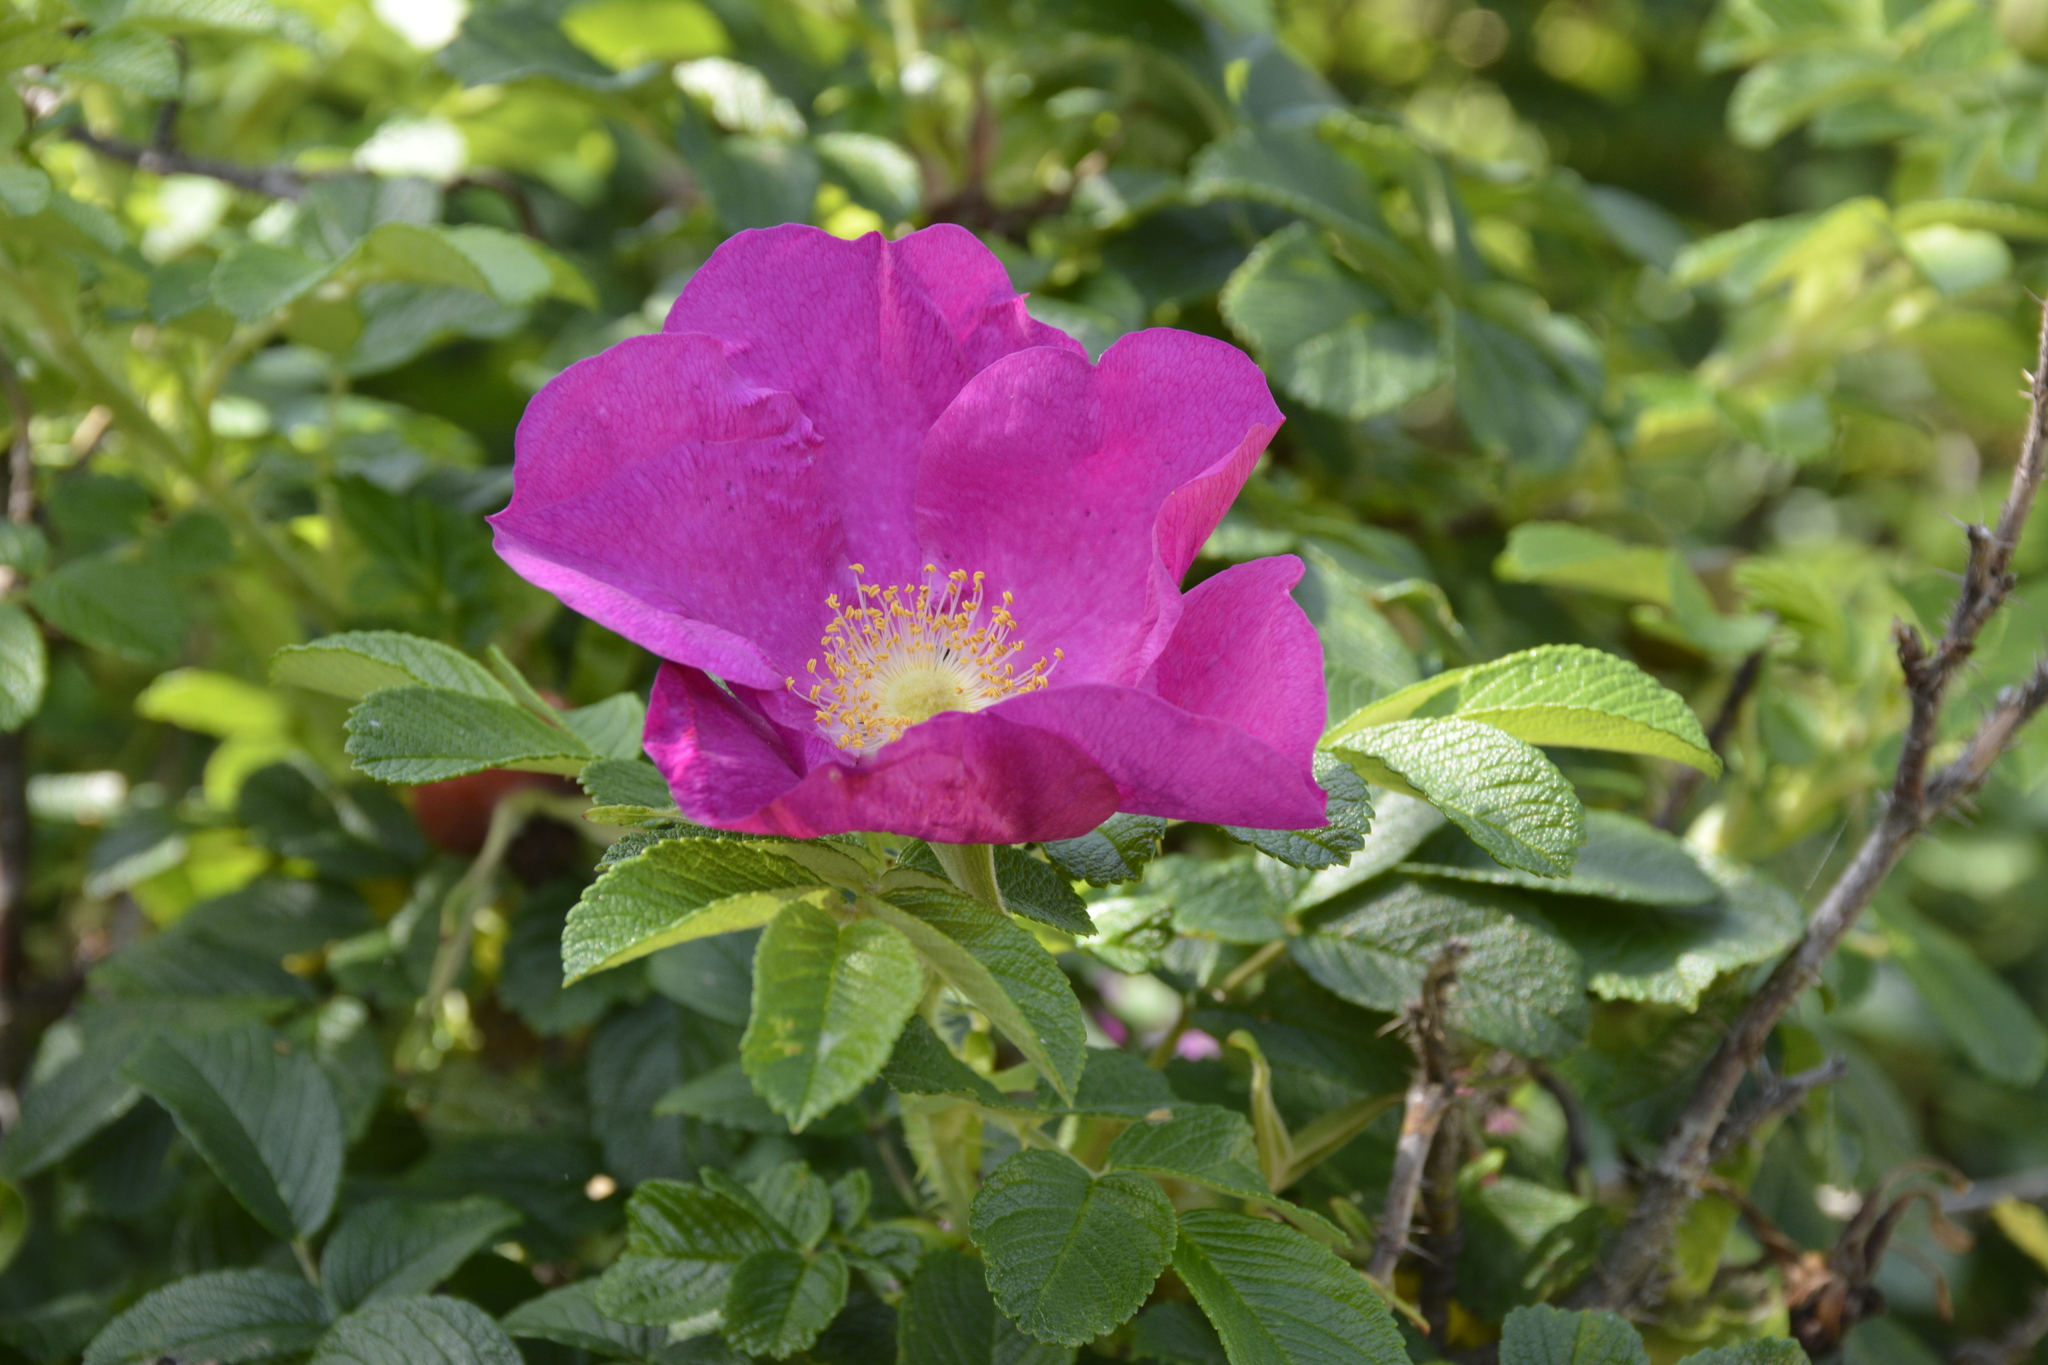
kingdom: Plantae
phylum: Tracheophyta
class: Magnoliopsida
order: Rosales
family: Rosaceae
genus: Rosa
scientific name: Rosa rugosa
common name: Japanese rose
